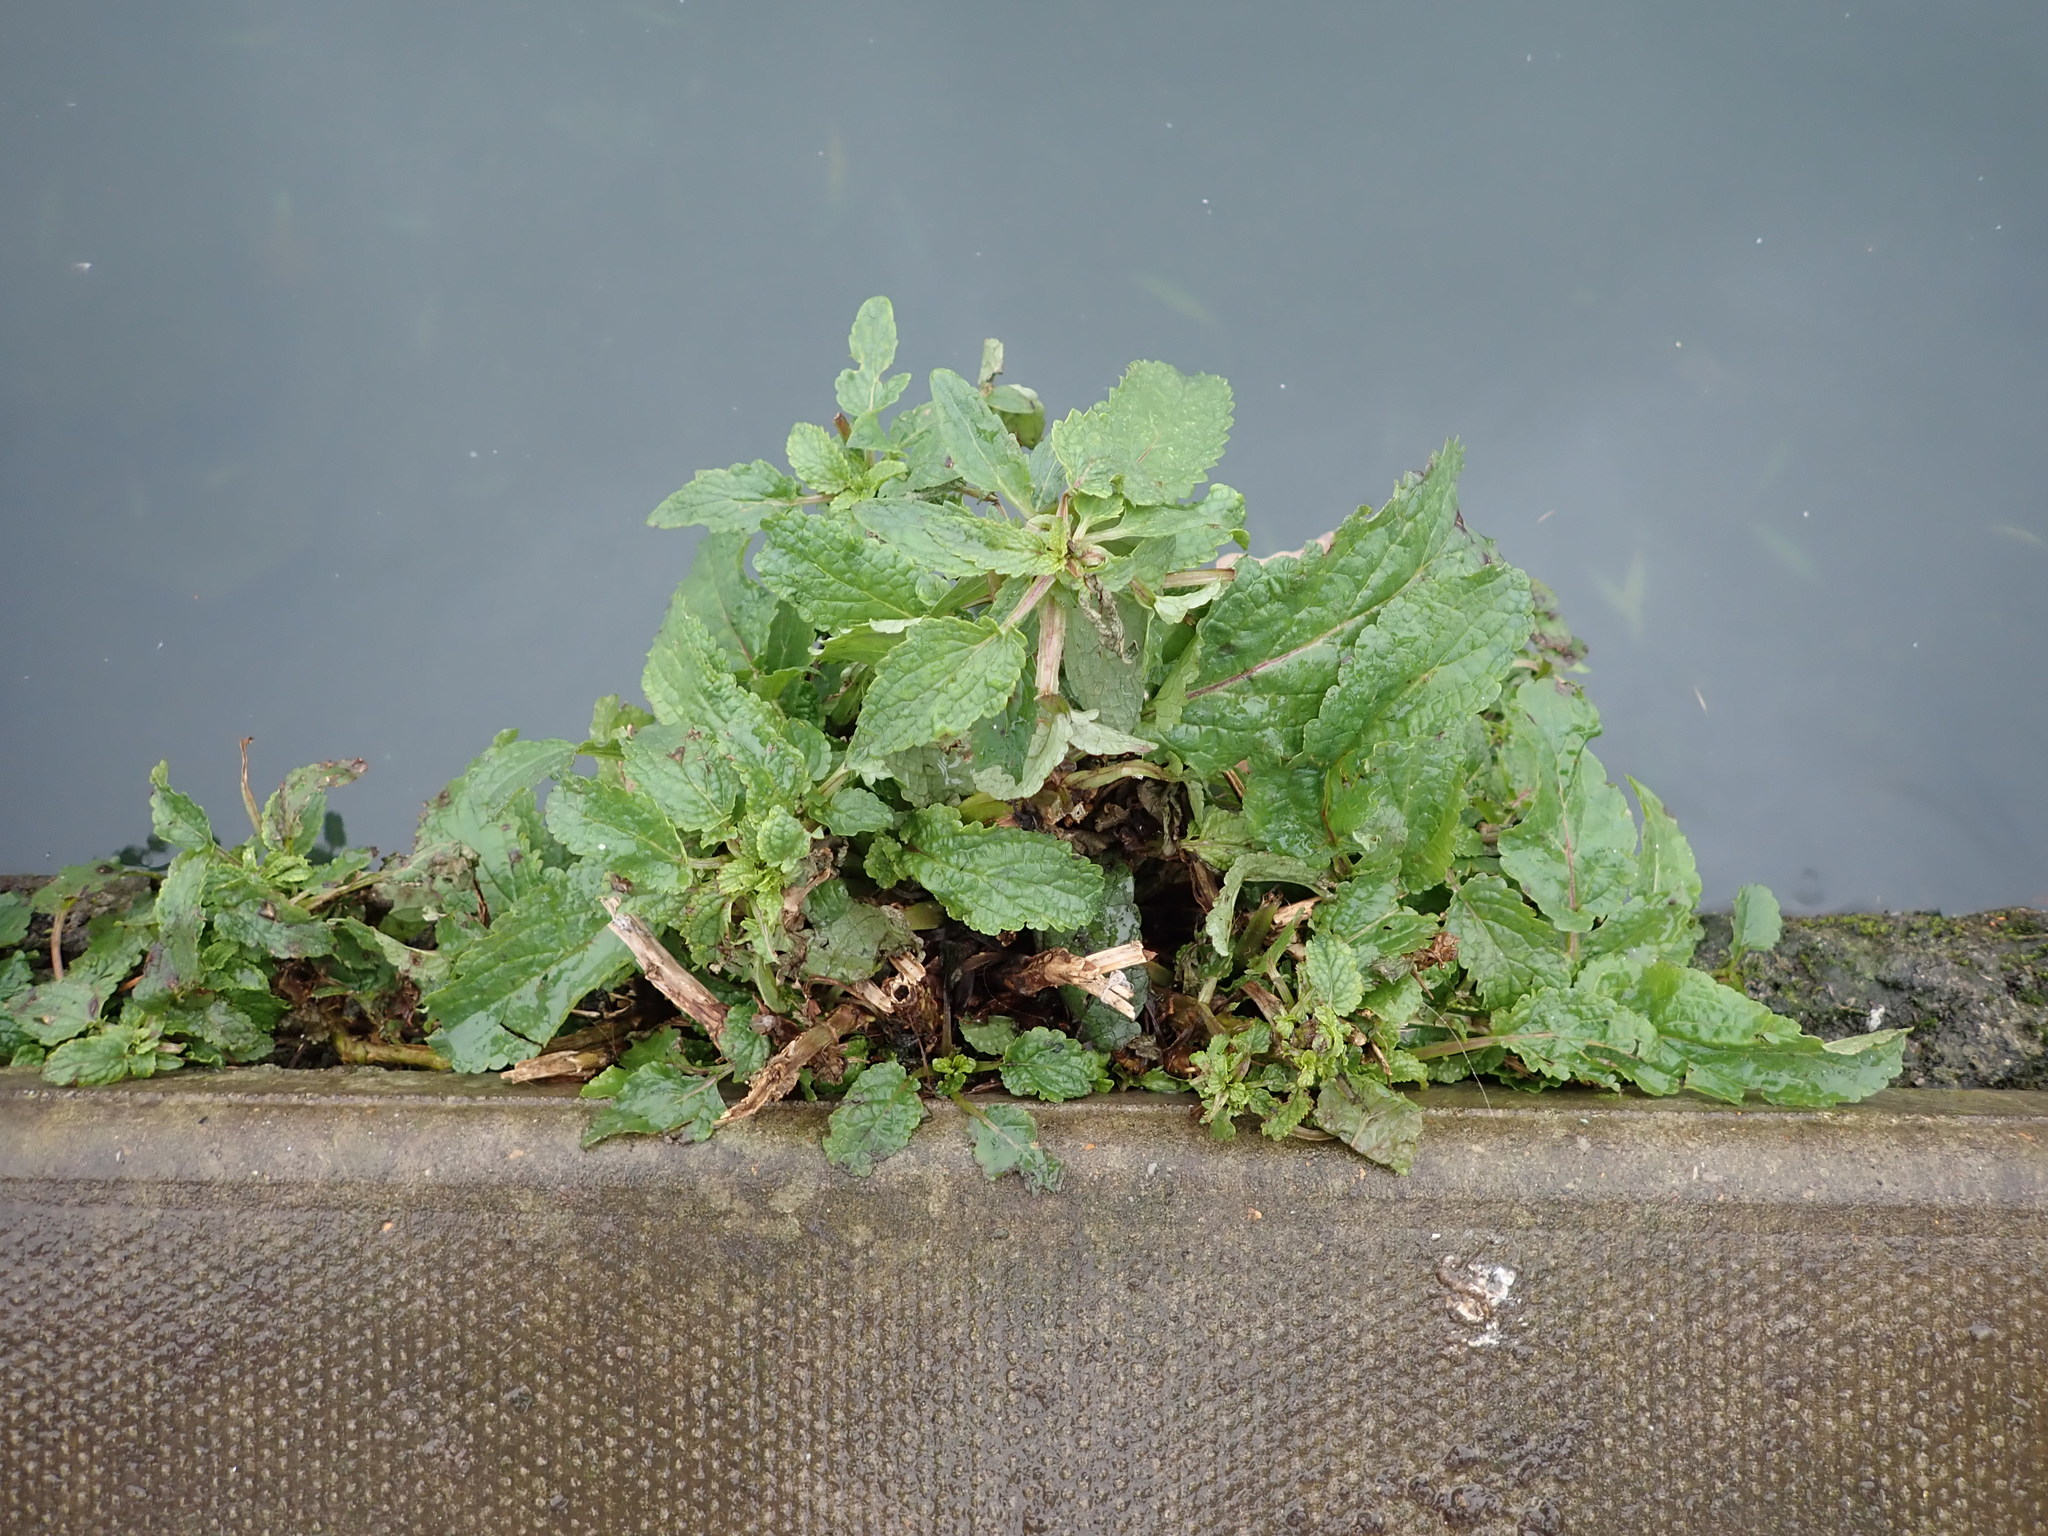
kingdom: Plantae
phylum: Tracheophyta
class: Magnoliopsida
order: Lamiales
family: Scrophulariaceae
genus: Scrophularia
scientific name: Scrophularia auriculata
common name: Water betony
